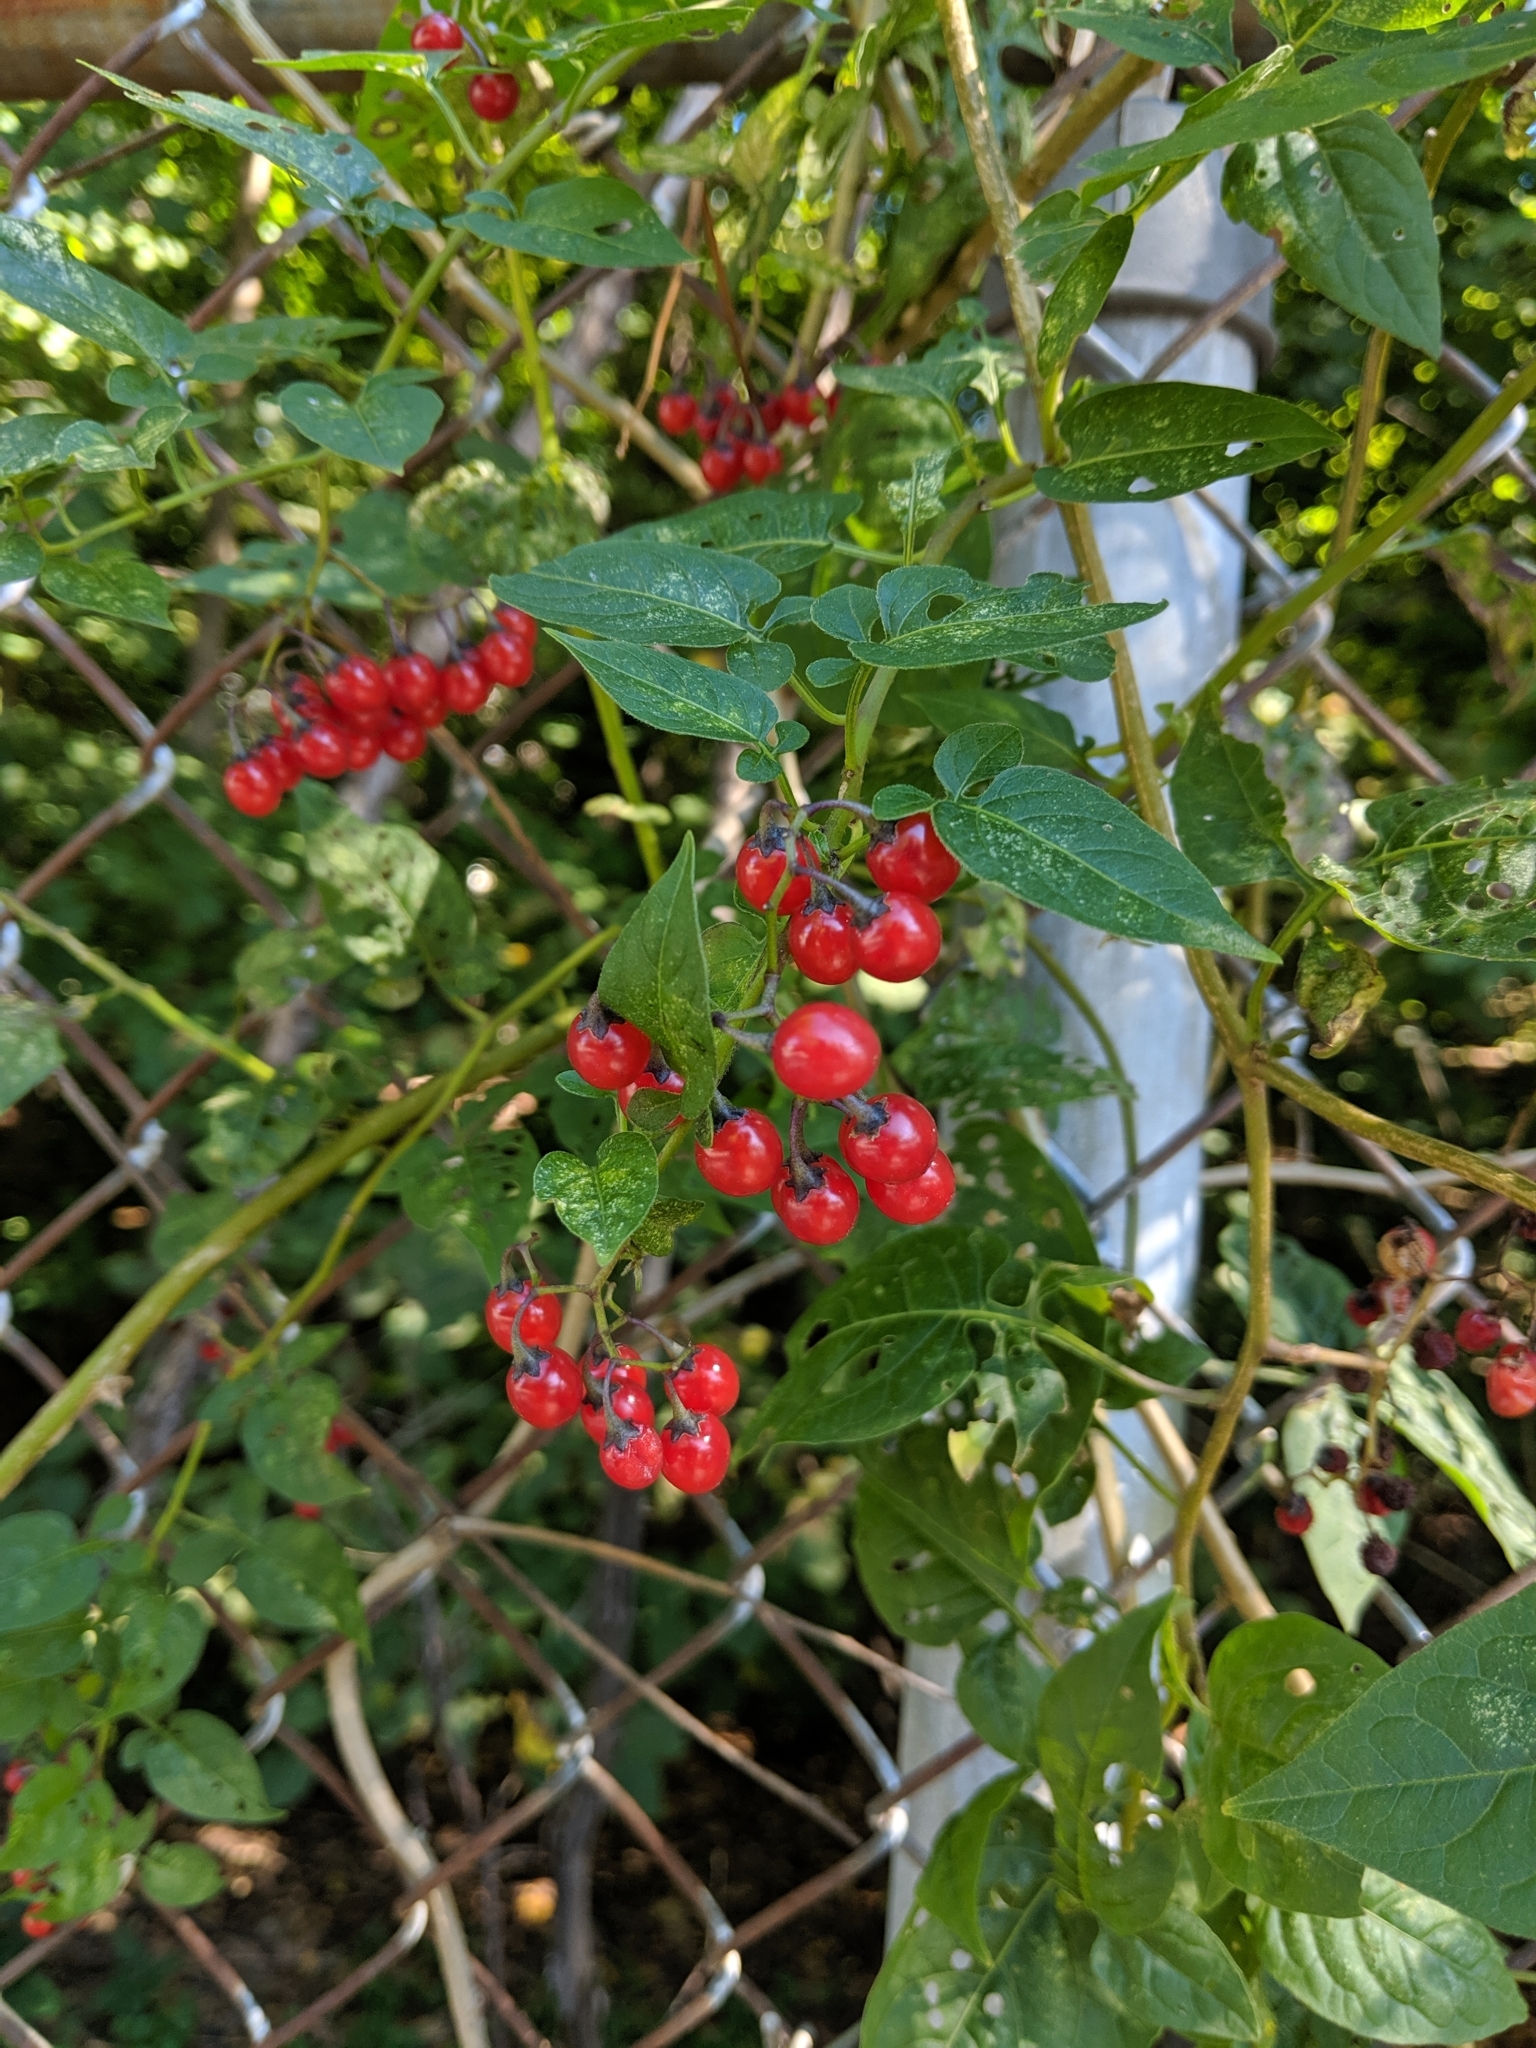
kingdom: Plantae
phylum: Tracheophyta
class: Magnoliopsida
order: Solanales
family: Solanaceae
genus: Solanum
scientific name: Solanum dulcamara
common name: Climbing nightshade
